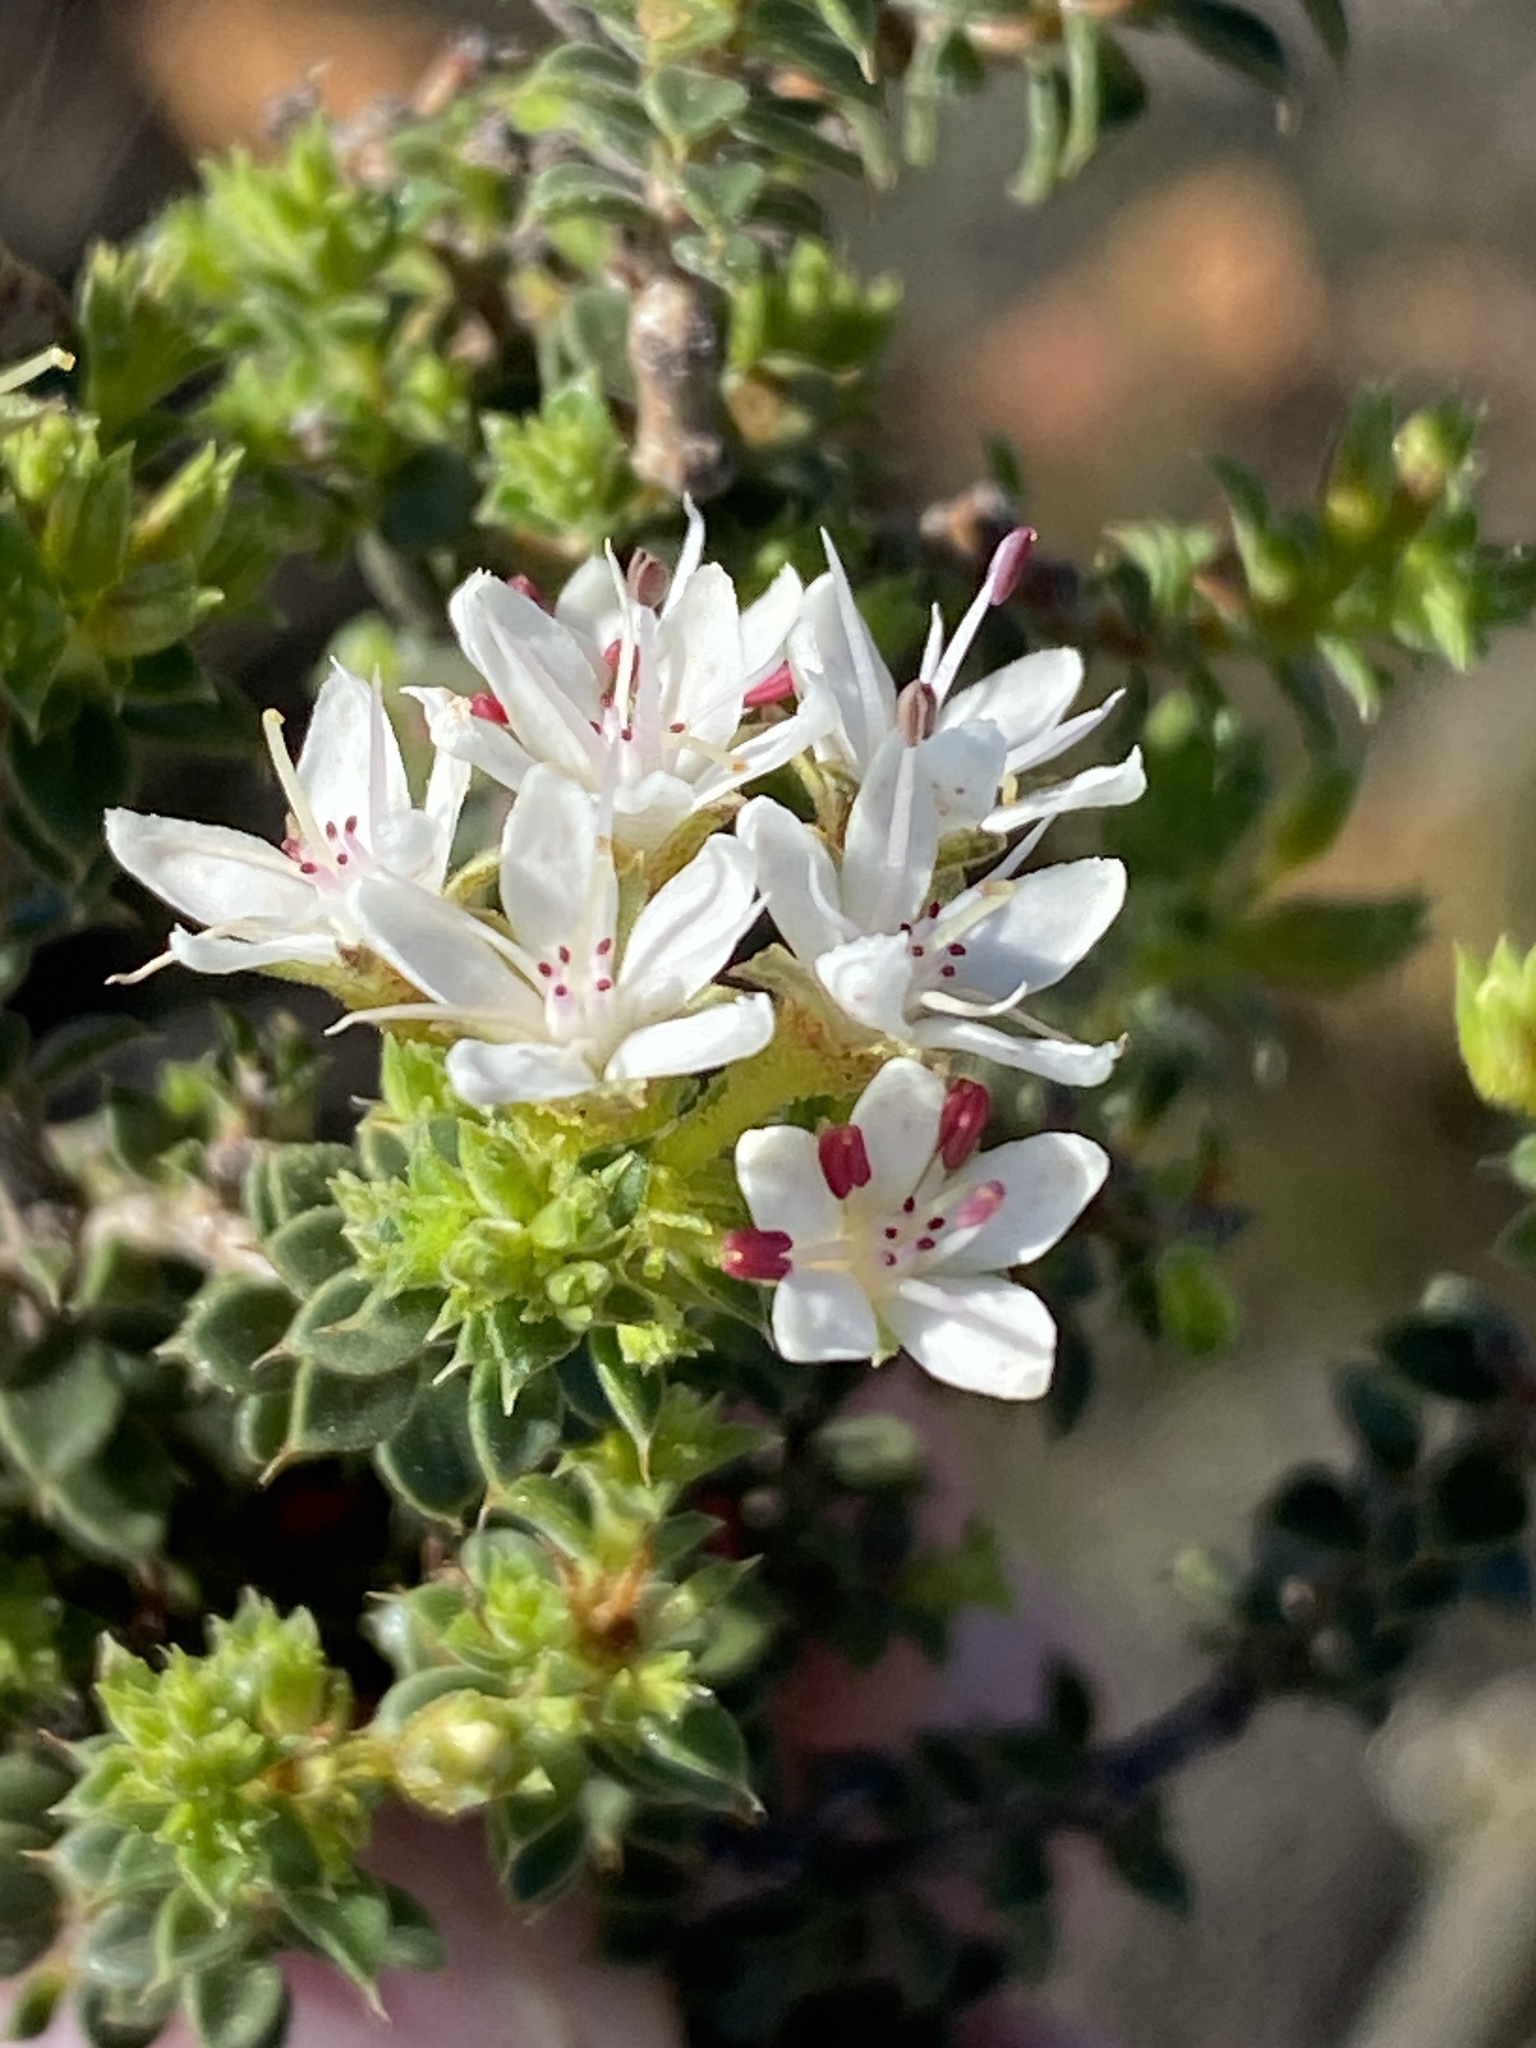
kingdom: Plantae
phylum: Tracheophyta
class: Magnoliopsida
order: Sapindales
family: Rutaceae
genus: Agathosma
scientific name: Agathosma spinosa
